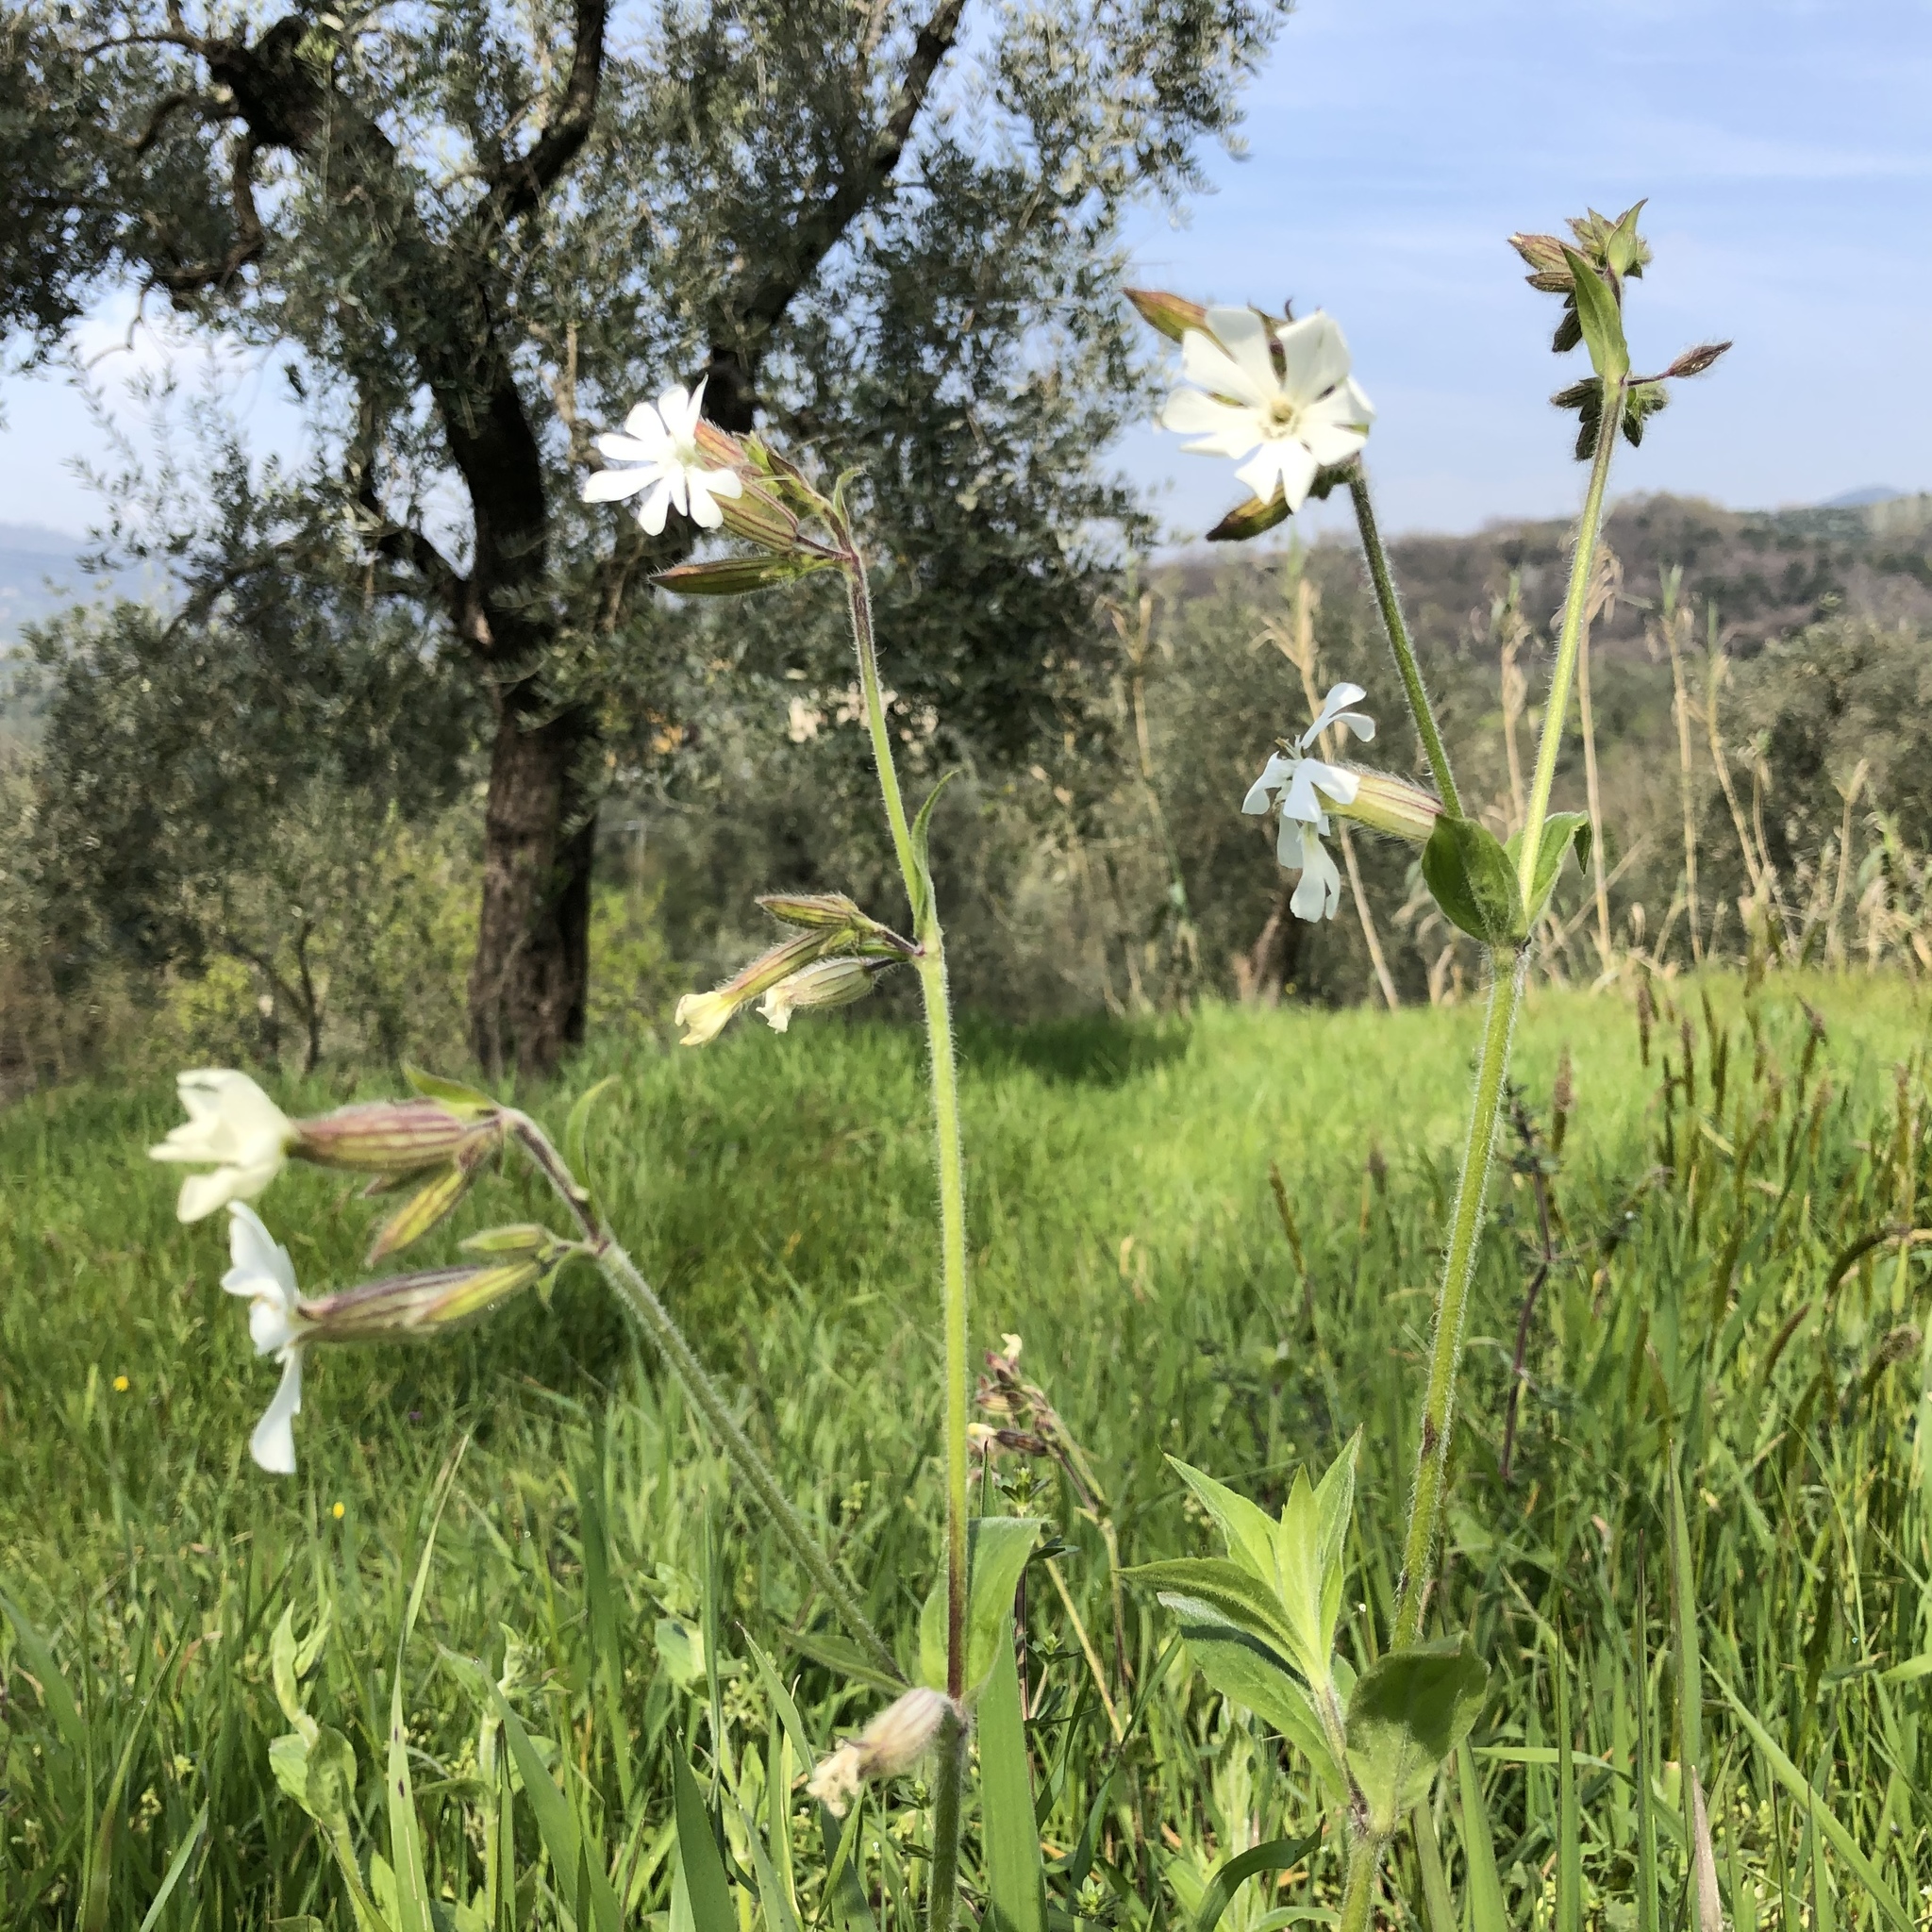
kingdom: Plantae
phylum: Tracheophyta
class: Magnoliopsida
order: Caryophyllales
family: Caryophyllaceae
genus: Silene
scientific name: Silene latifolia
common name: White campion
